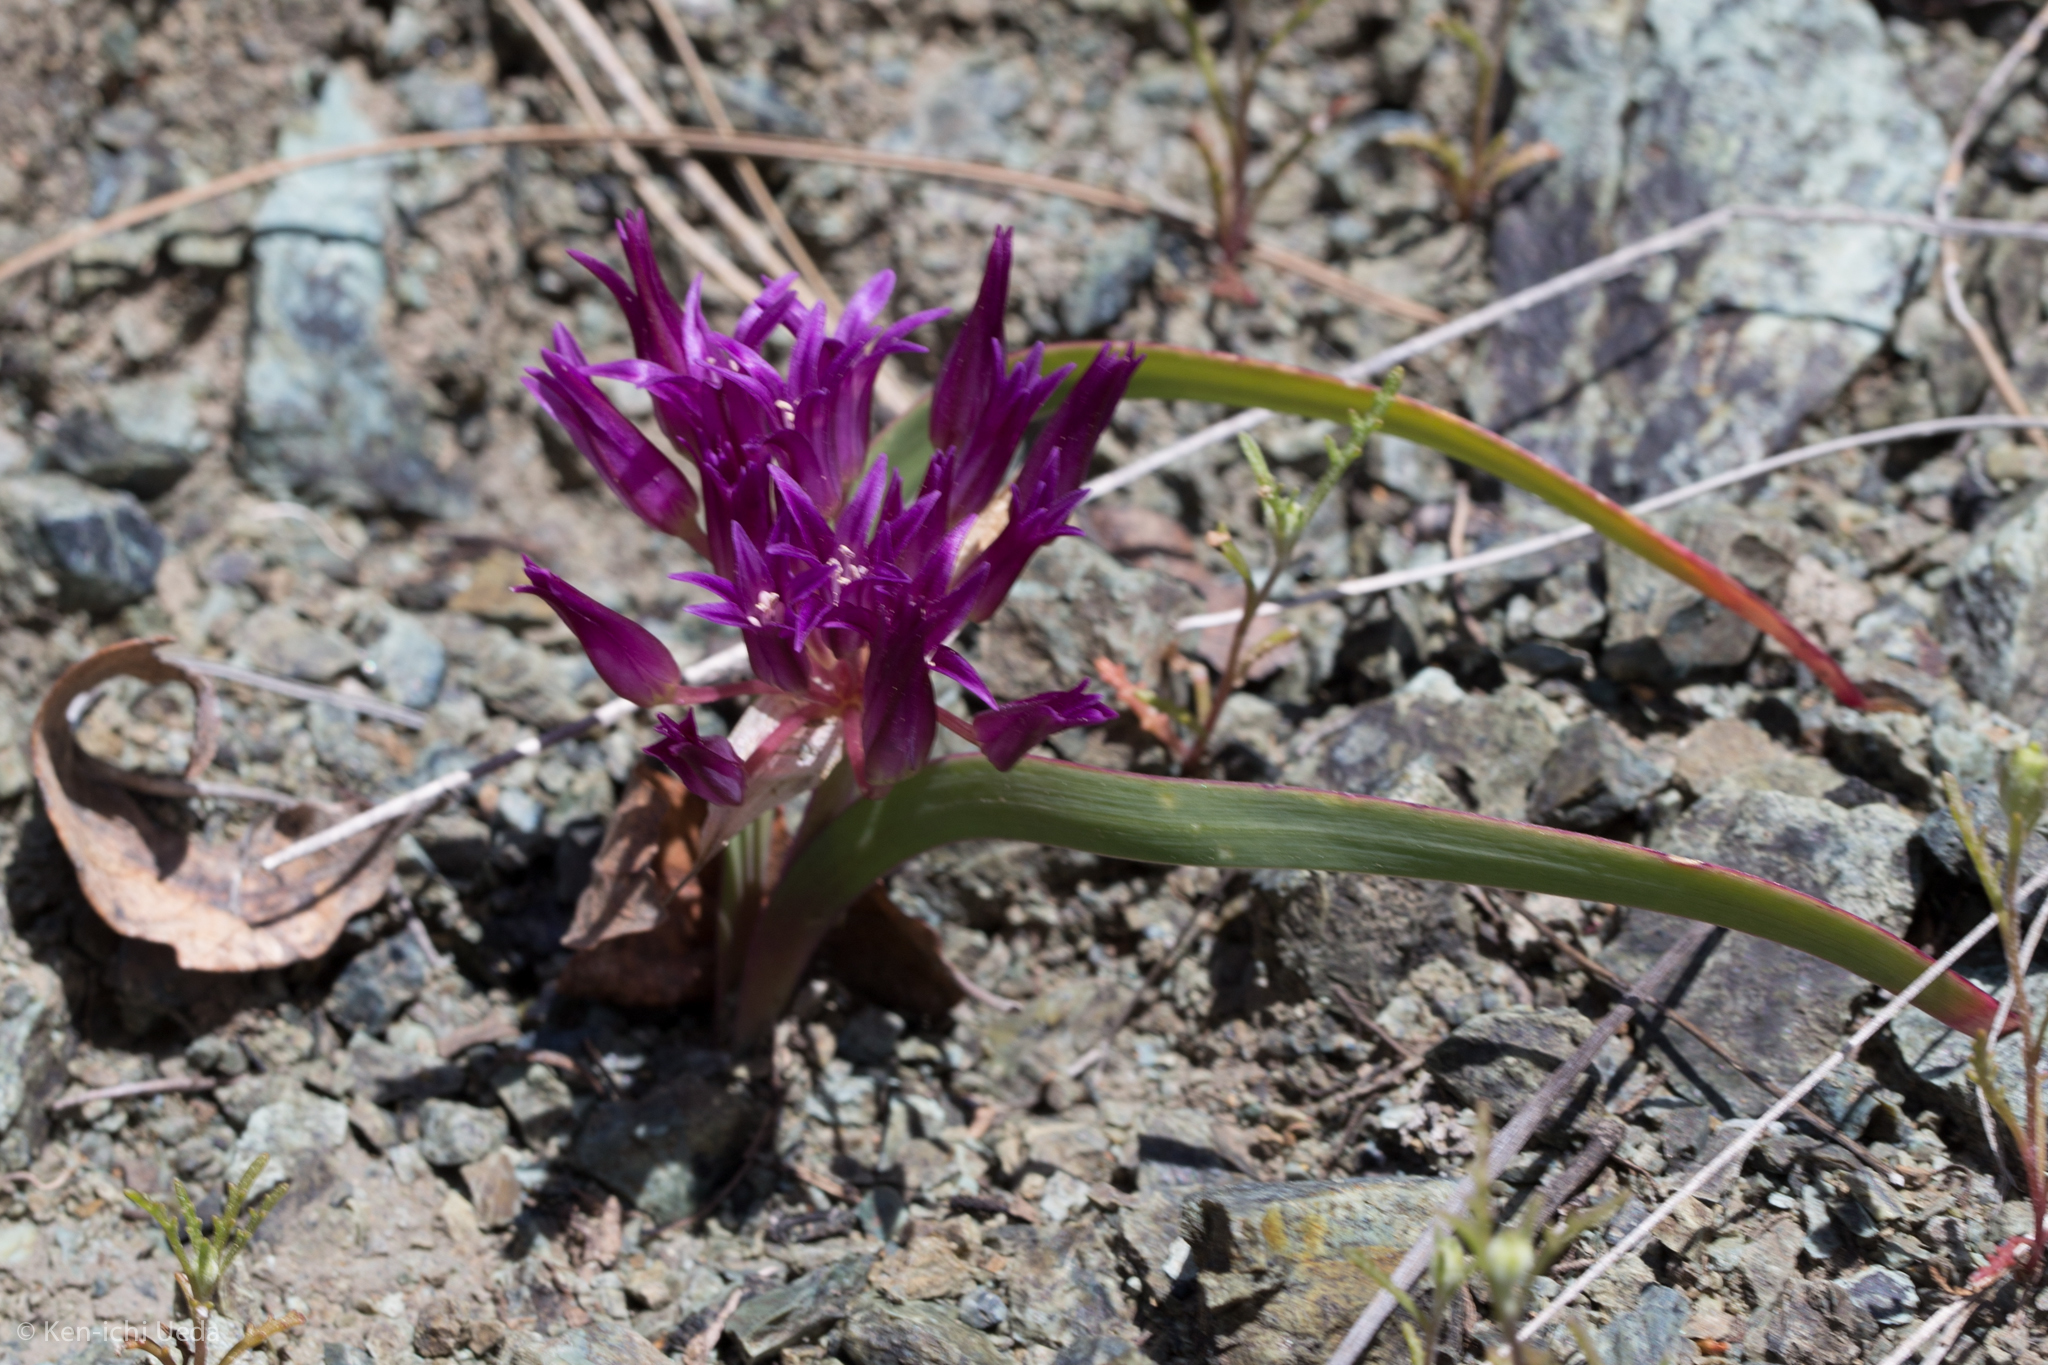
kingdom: Plantae
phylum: Tracheophyta
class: Liliopsida
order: Asparagales
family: Amaryllidaceae
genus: Allium
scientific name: Allium falcifolium
